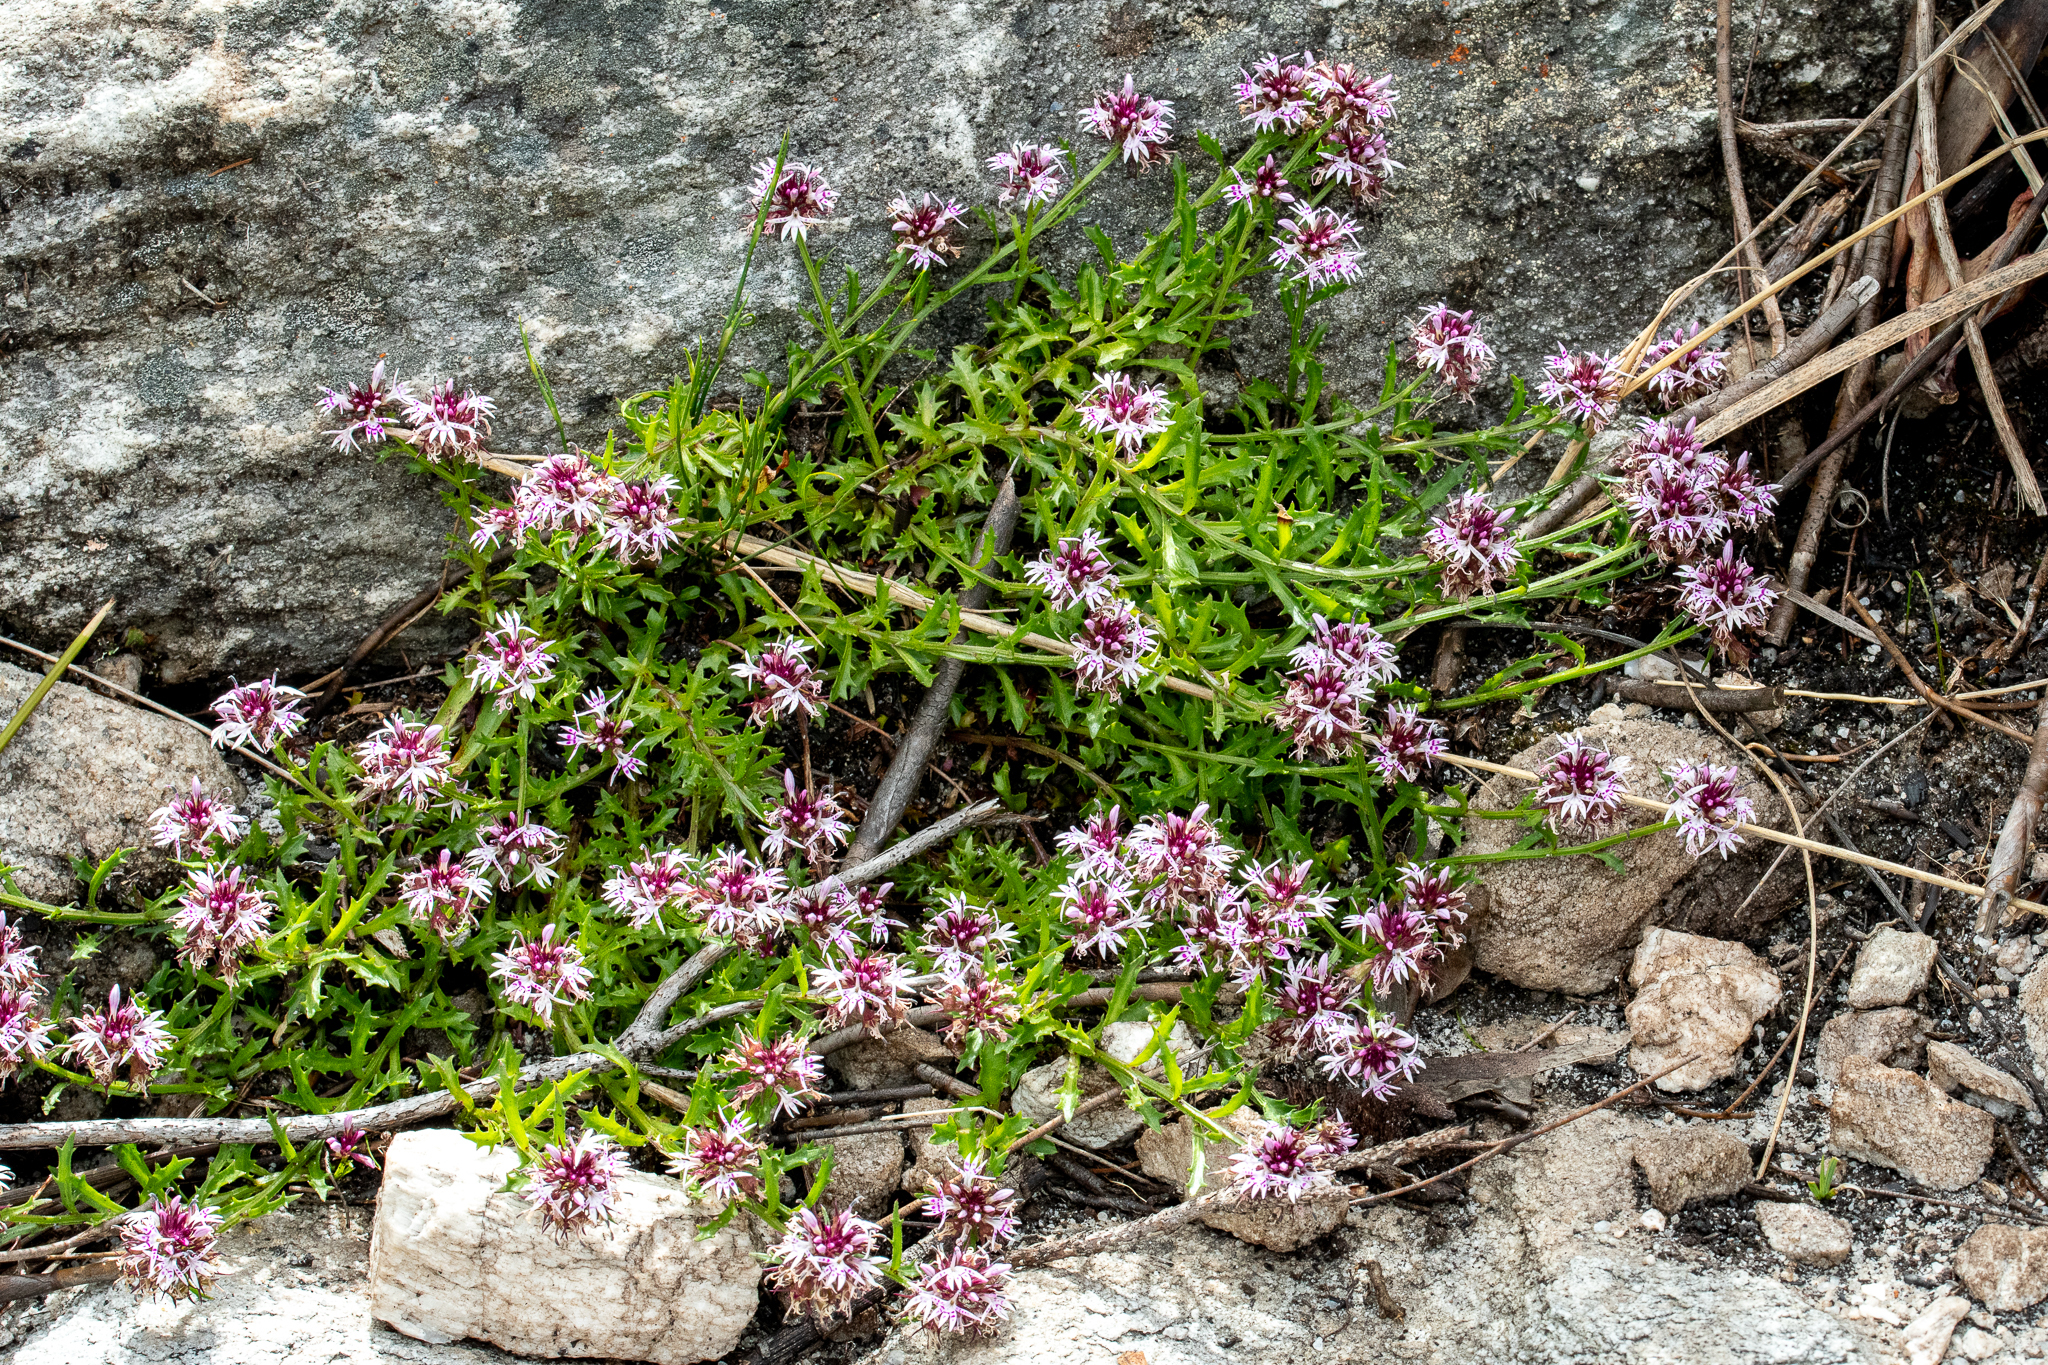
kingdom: Plantae
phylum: Tracheophyta
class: Magnoliopsida
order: Asterales
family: Campanulaceae
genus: Lobelia
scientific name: Lobelia jasionoides
